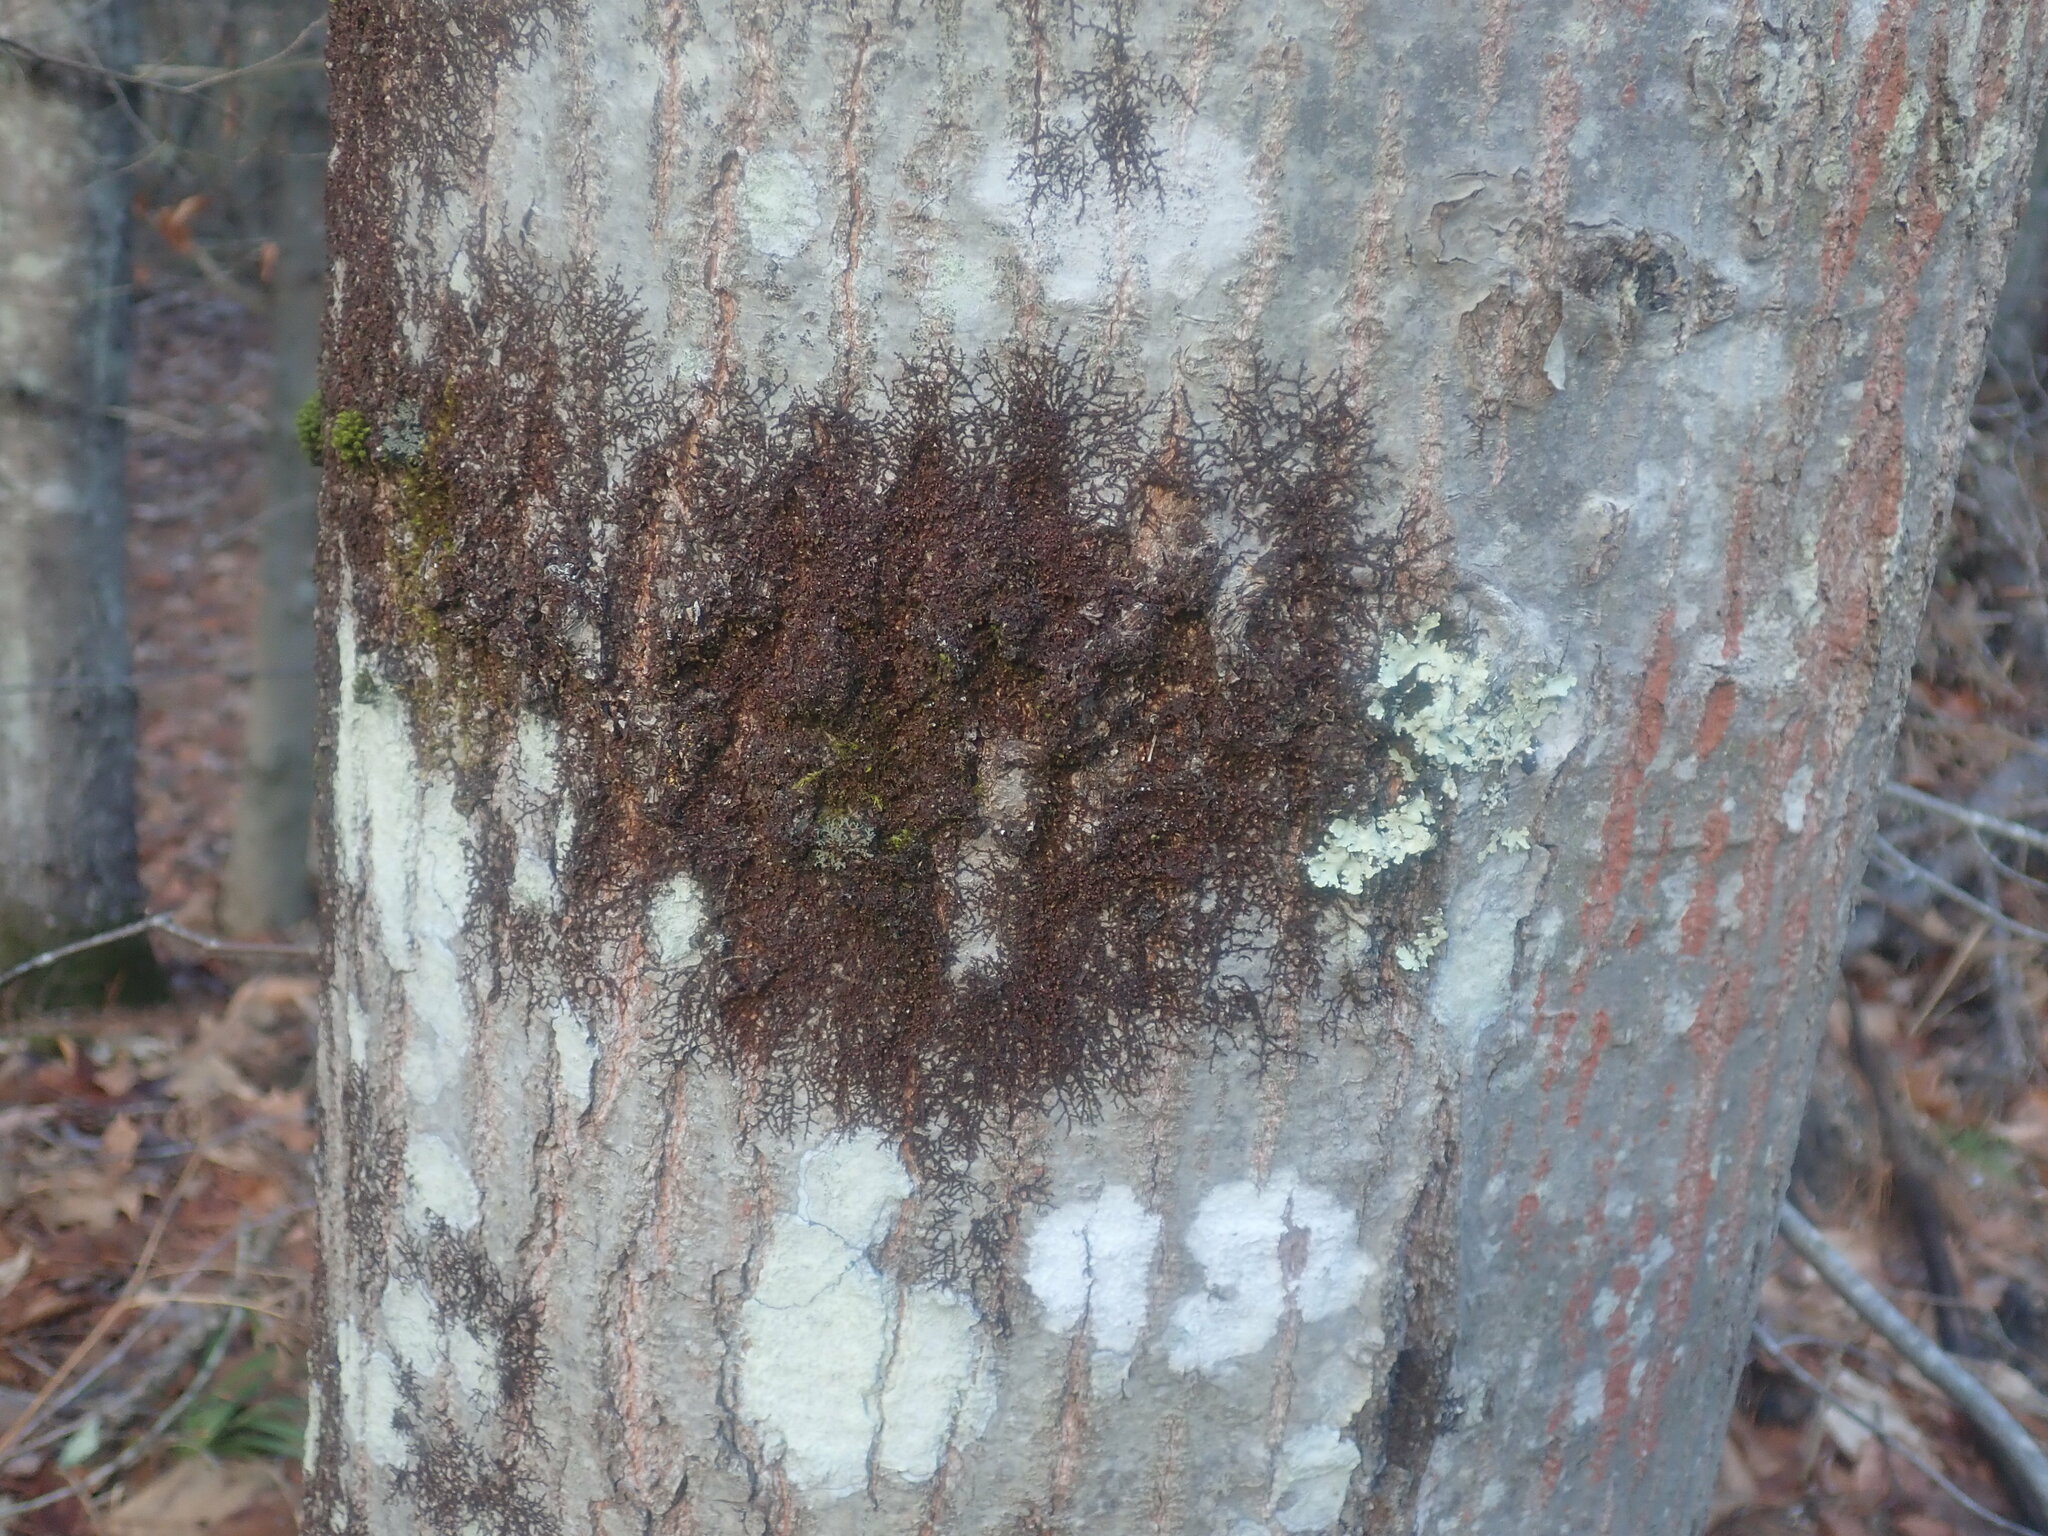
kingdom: Plantae
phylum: Marchantiophyta
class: Jungermanniopsida
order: Porellales
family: Frullaniaceae
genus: Frullania
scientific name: Frullania
